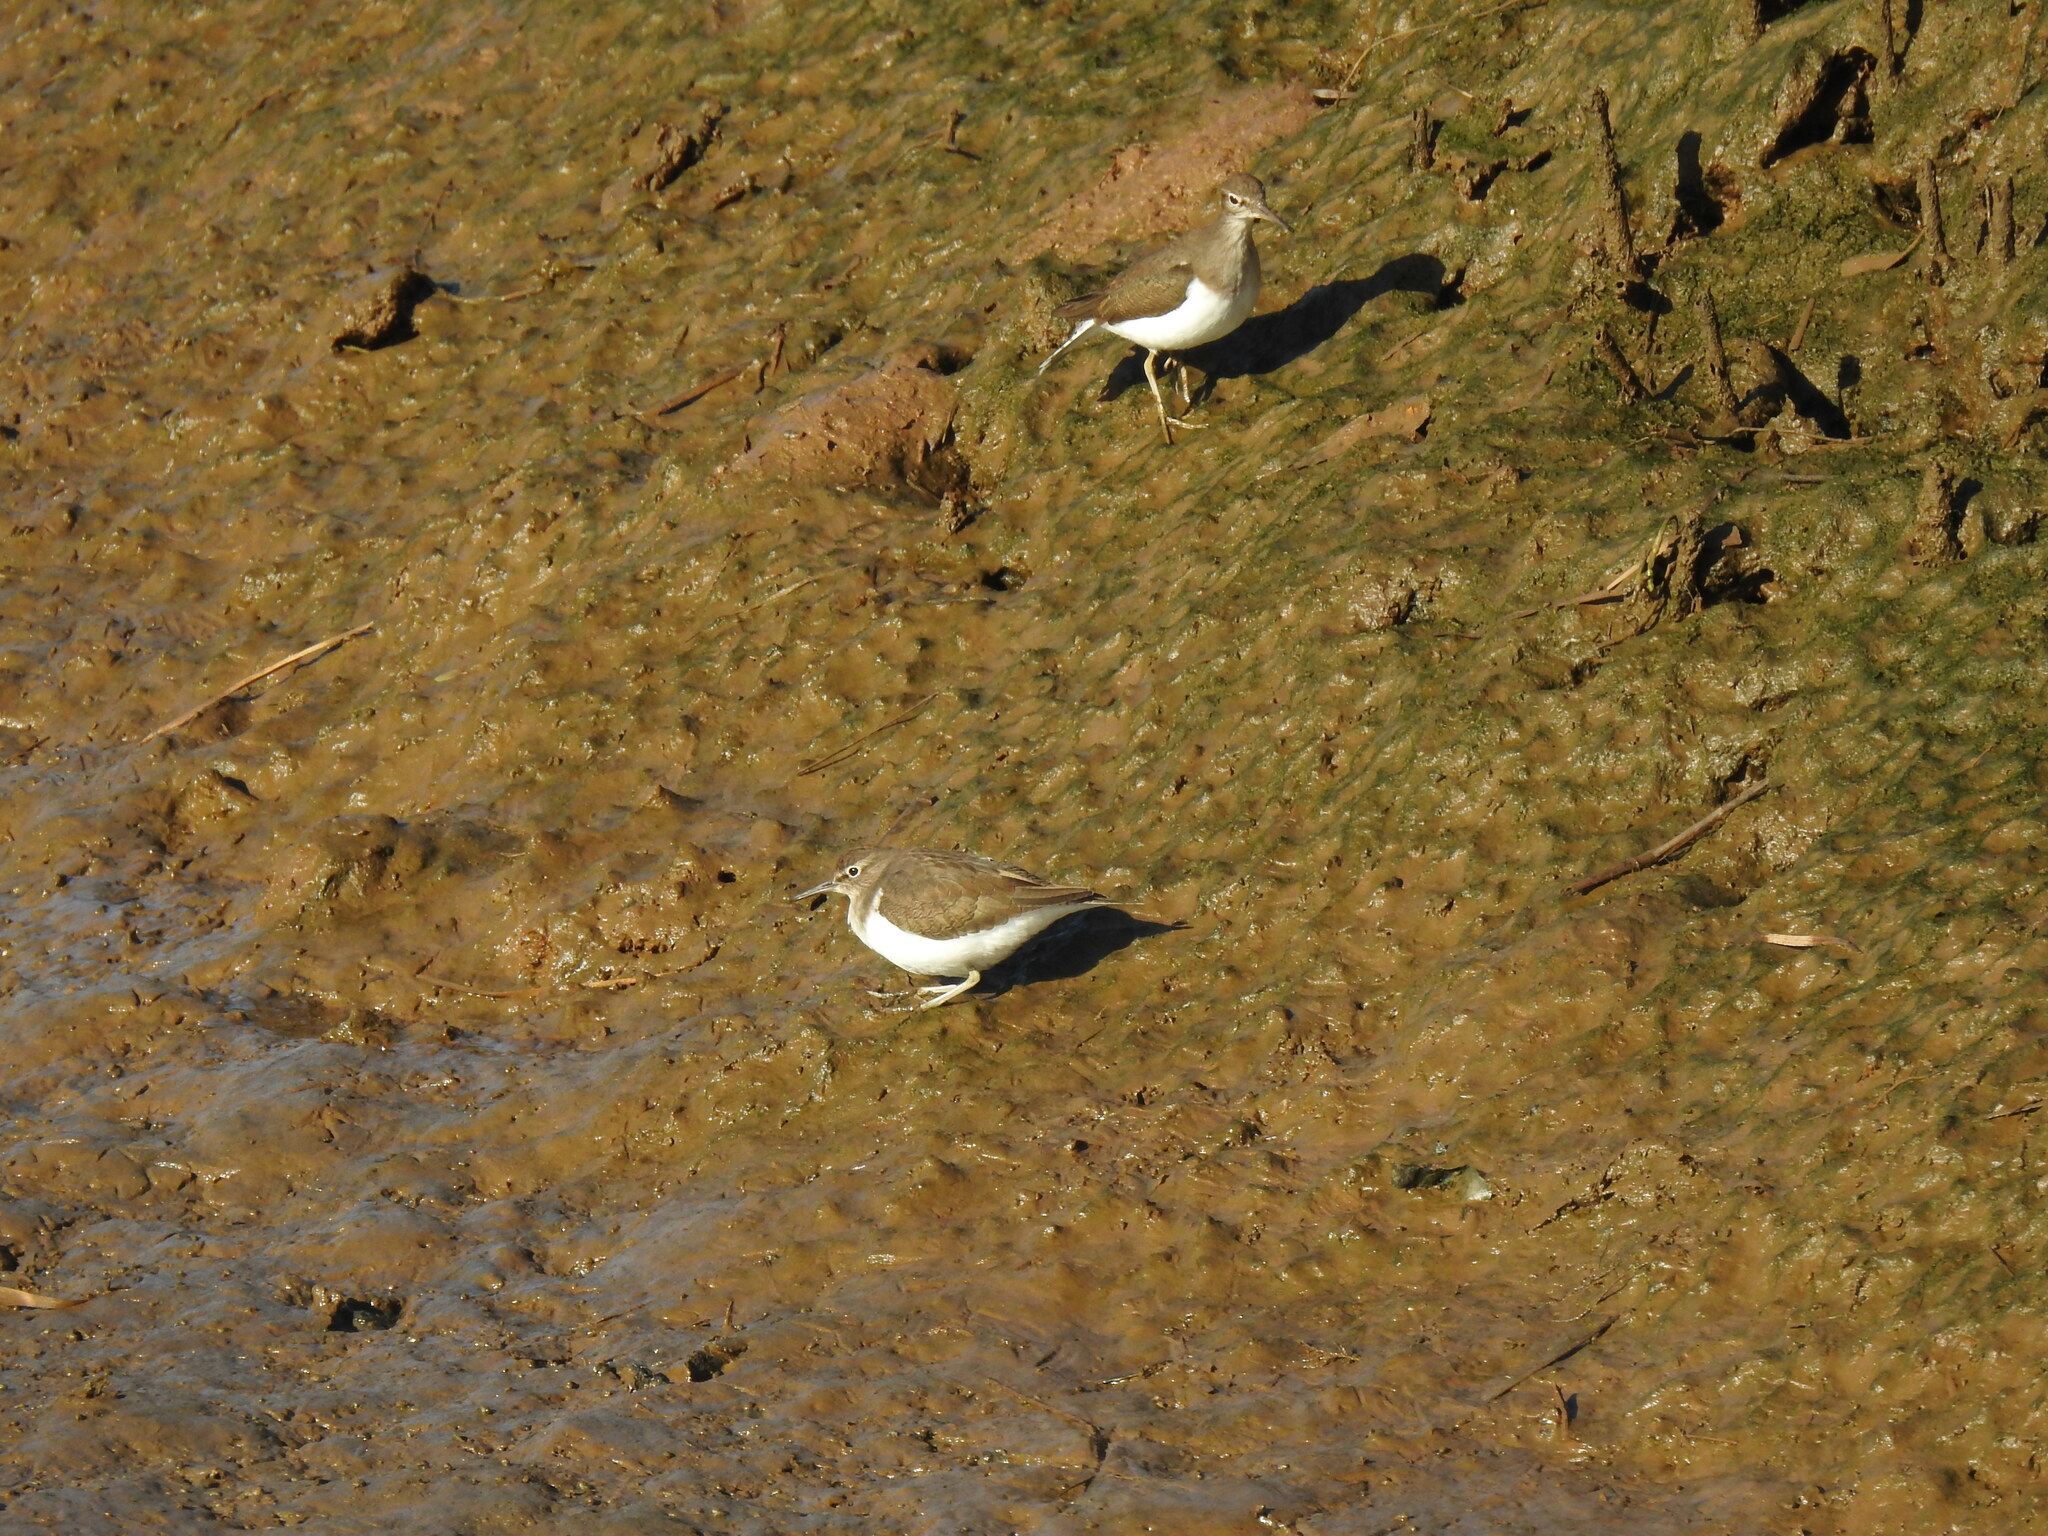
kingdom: Animalia
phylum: Chordata
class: Aves
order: Charadriiformes
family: Scolopacidae
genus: Actitis
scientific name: Actitis hypoleucos
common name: Common sandpiper
